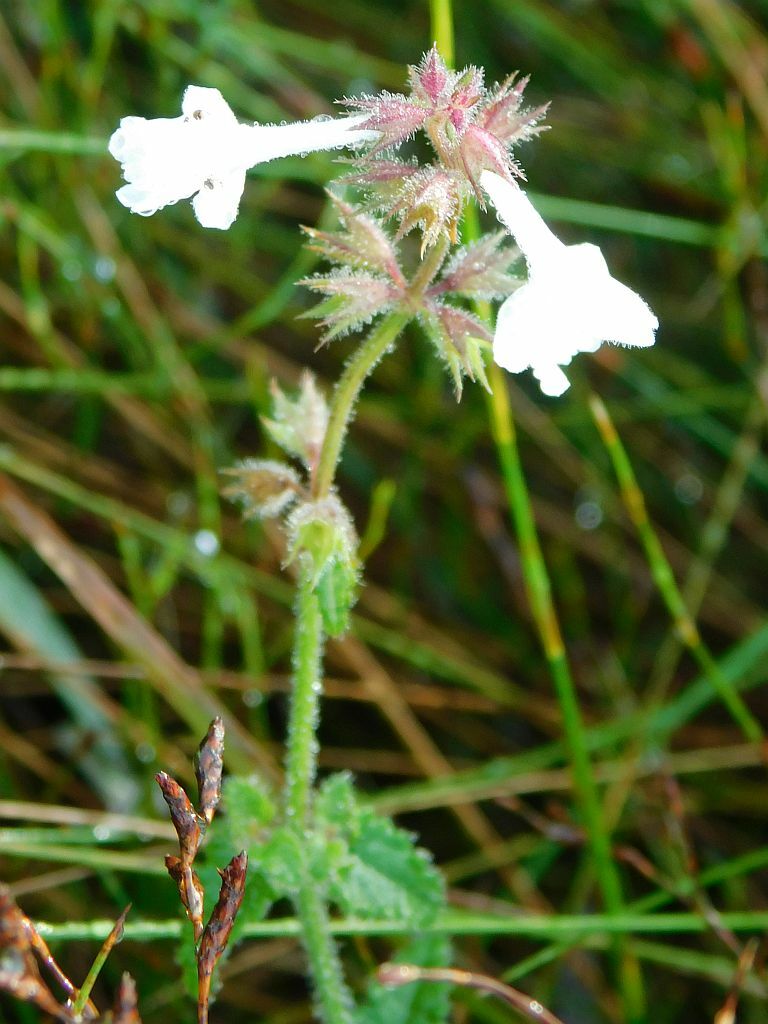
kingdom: Plantae
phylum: Tracheophyta
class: Magnoliopsida
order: Lamiales
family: Lamiaceae
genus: Stachys
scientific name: Stachys aethiopica
